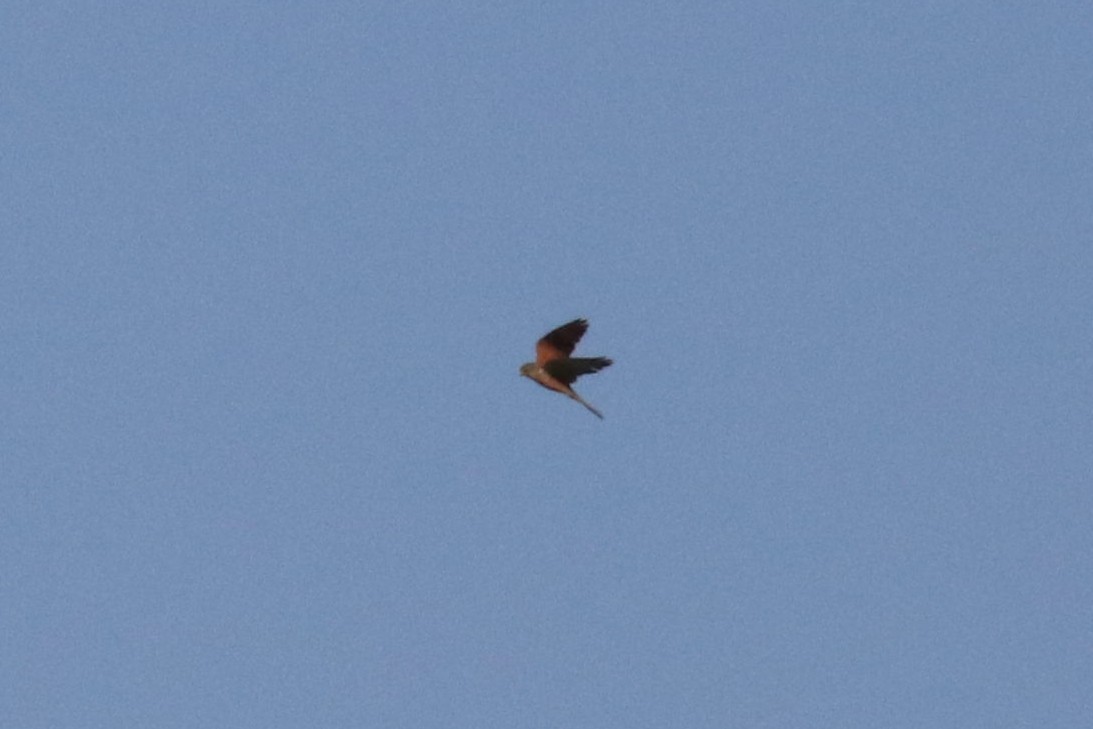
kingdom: Animalia
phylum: Chordata
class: Aves
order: Falconiformes
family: Falconidae
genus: Falco
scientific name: Falco tinnunculus
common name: Common kestrel
